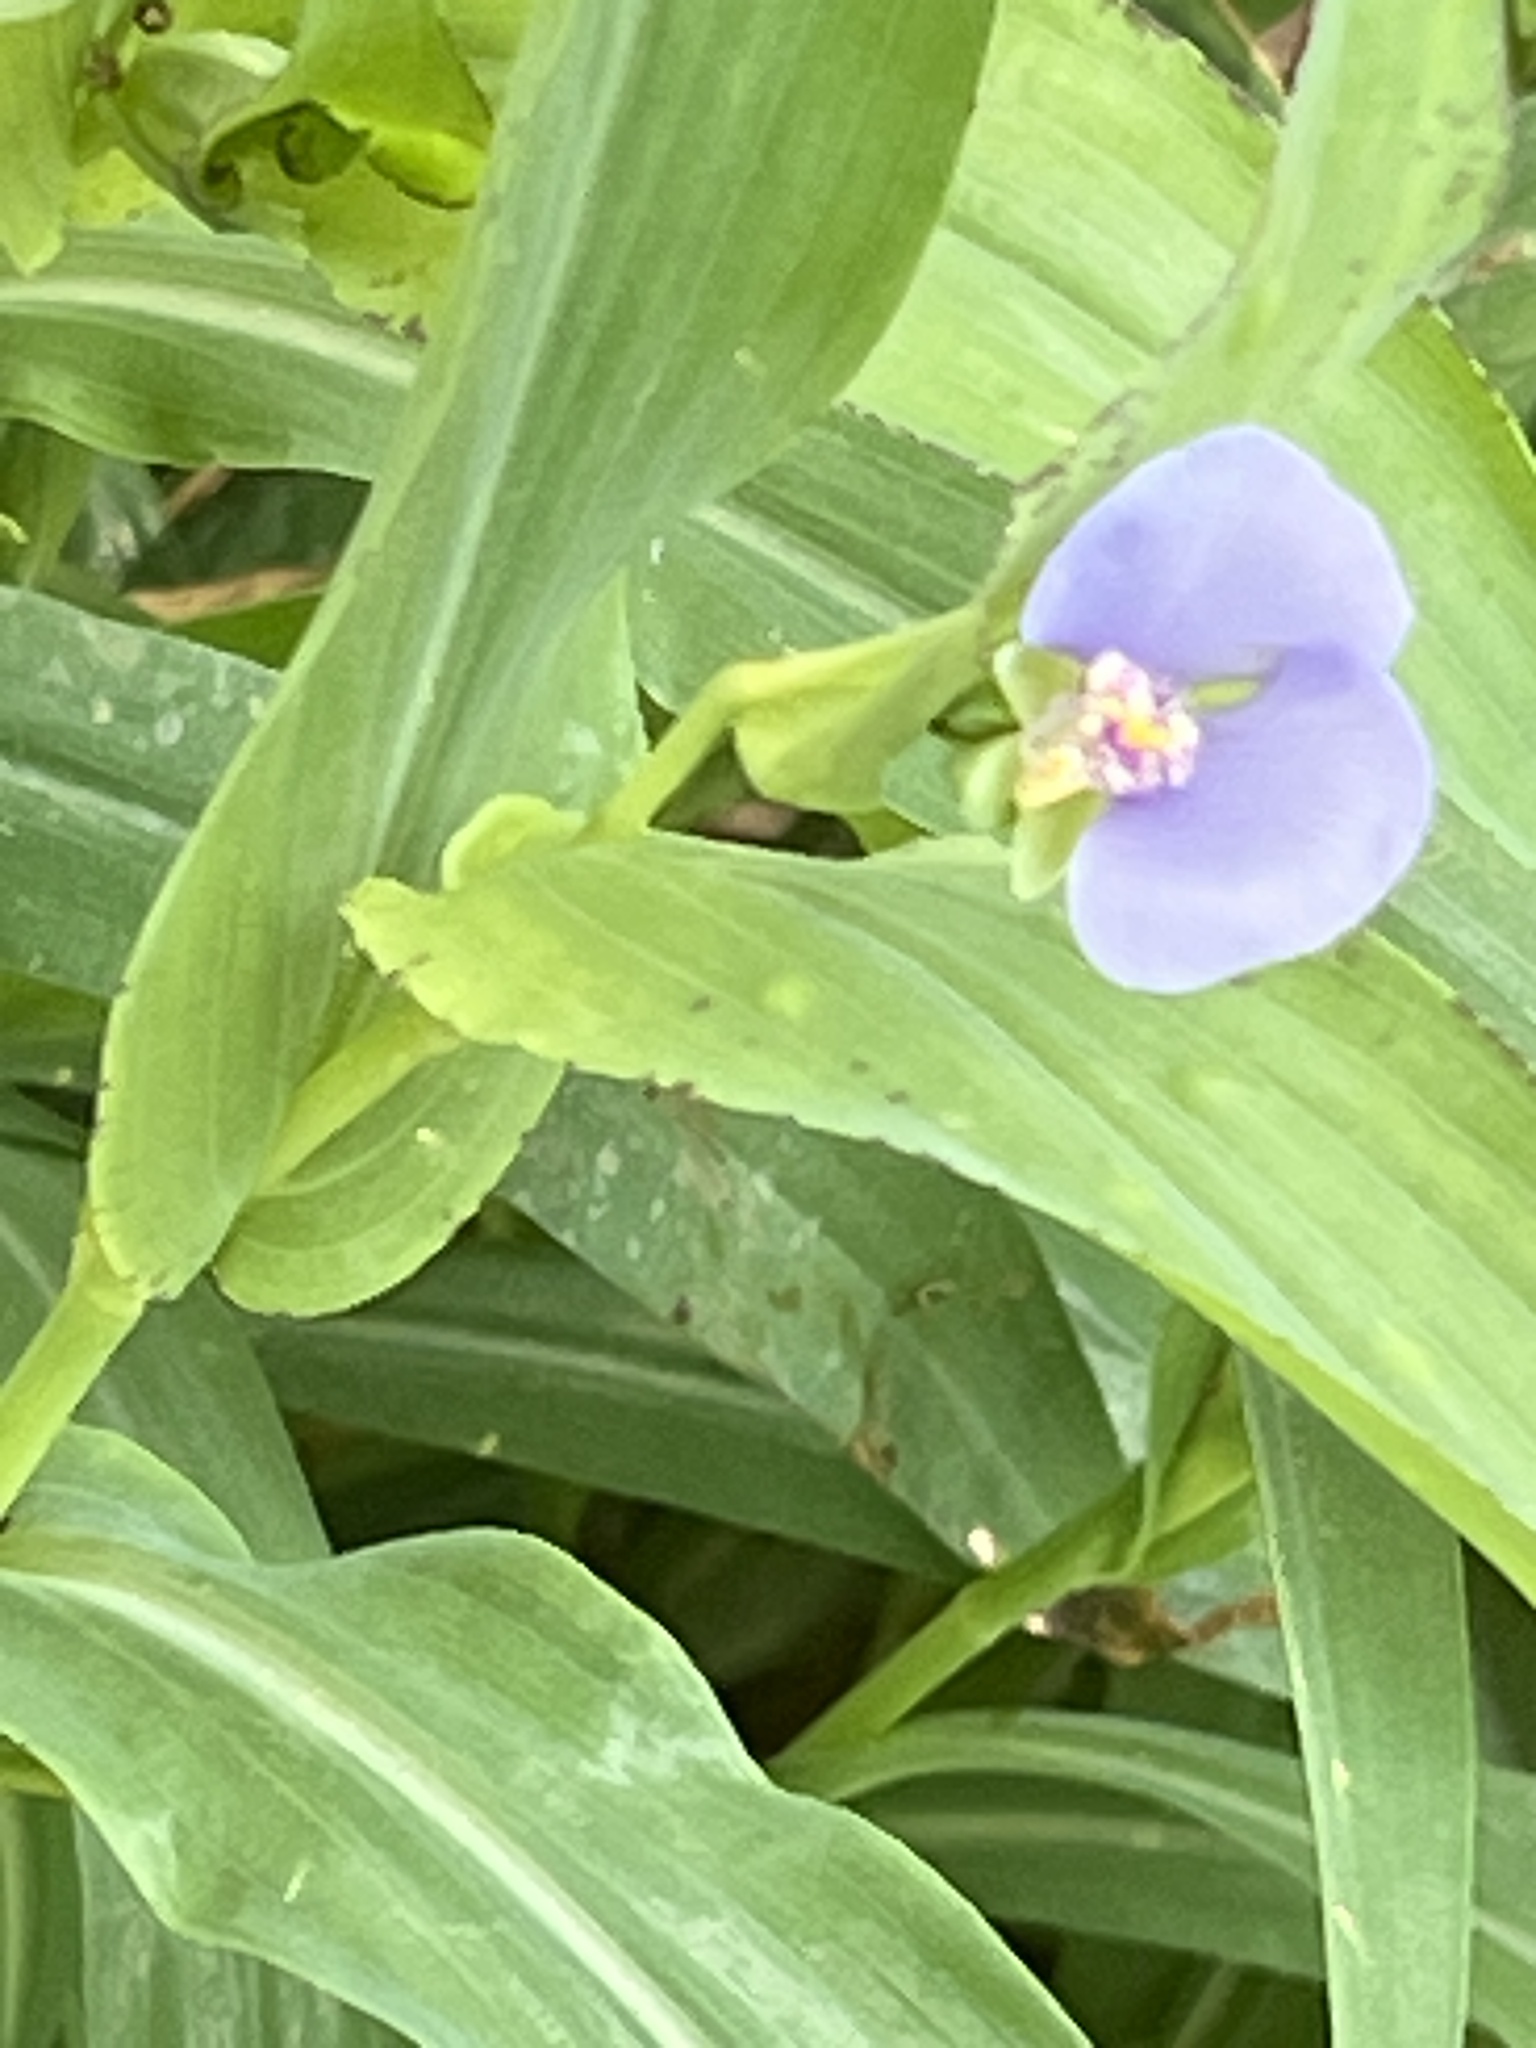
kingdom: Plantae
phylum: Tracheophyta
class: Liliopsida
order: Commelinales
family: Commelinaceae
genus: Tinantia
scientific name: Tinantia anomala
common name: False dayflower
